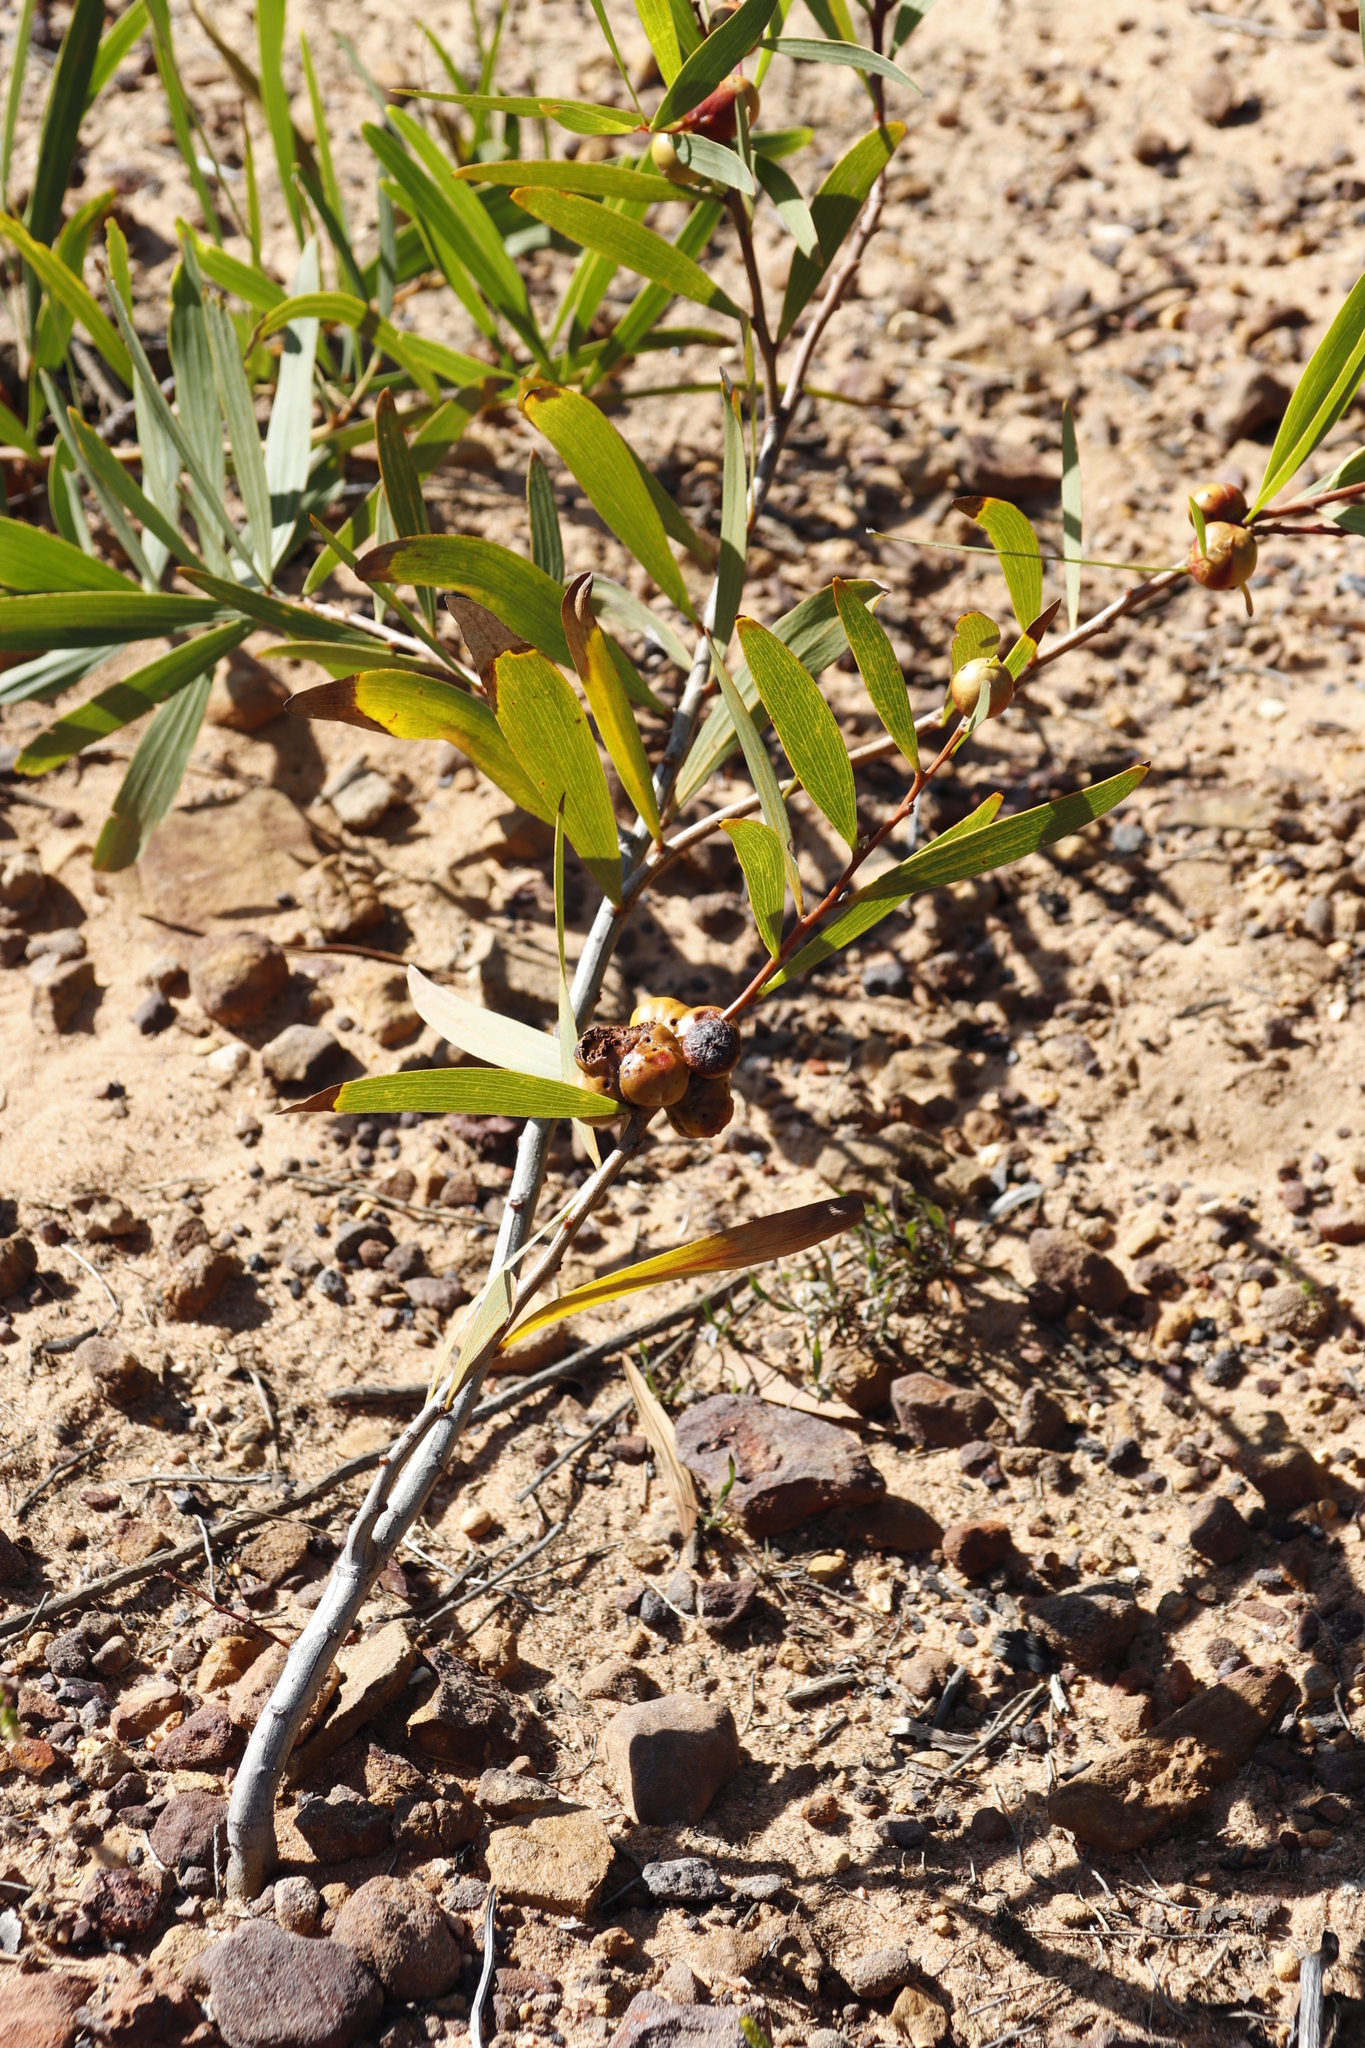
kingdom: Plantae
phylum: Tracheophyta
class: Magnoliopsida
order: Fabales
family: Fabaceae
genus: Acacia
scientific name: Acacia longifolia
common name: Sydney golden wattle
